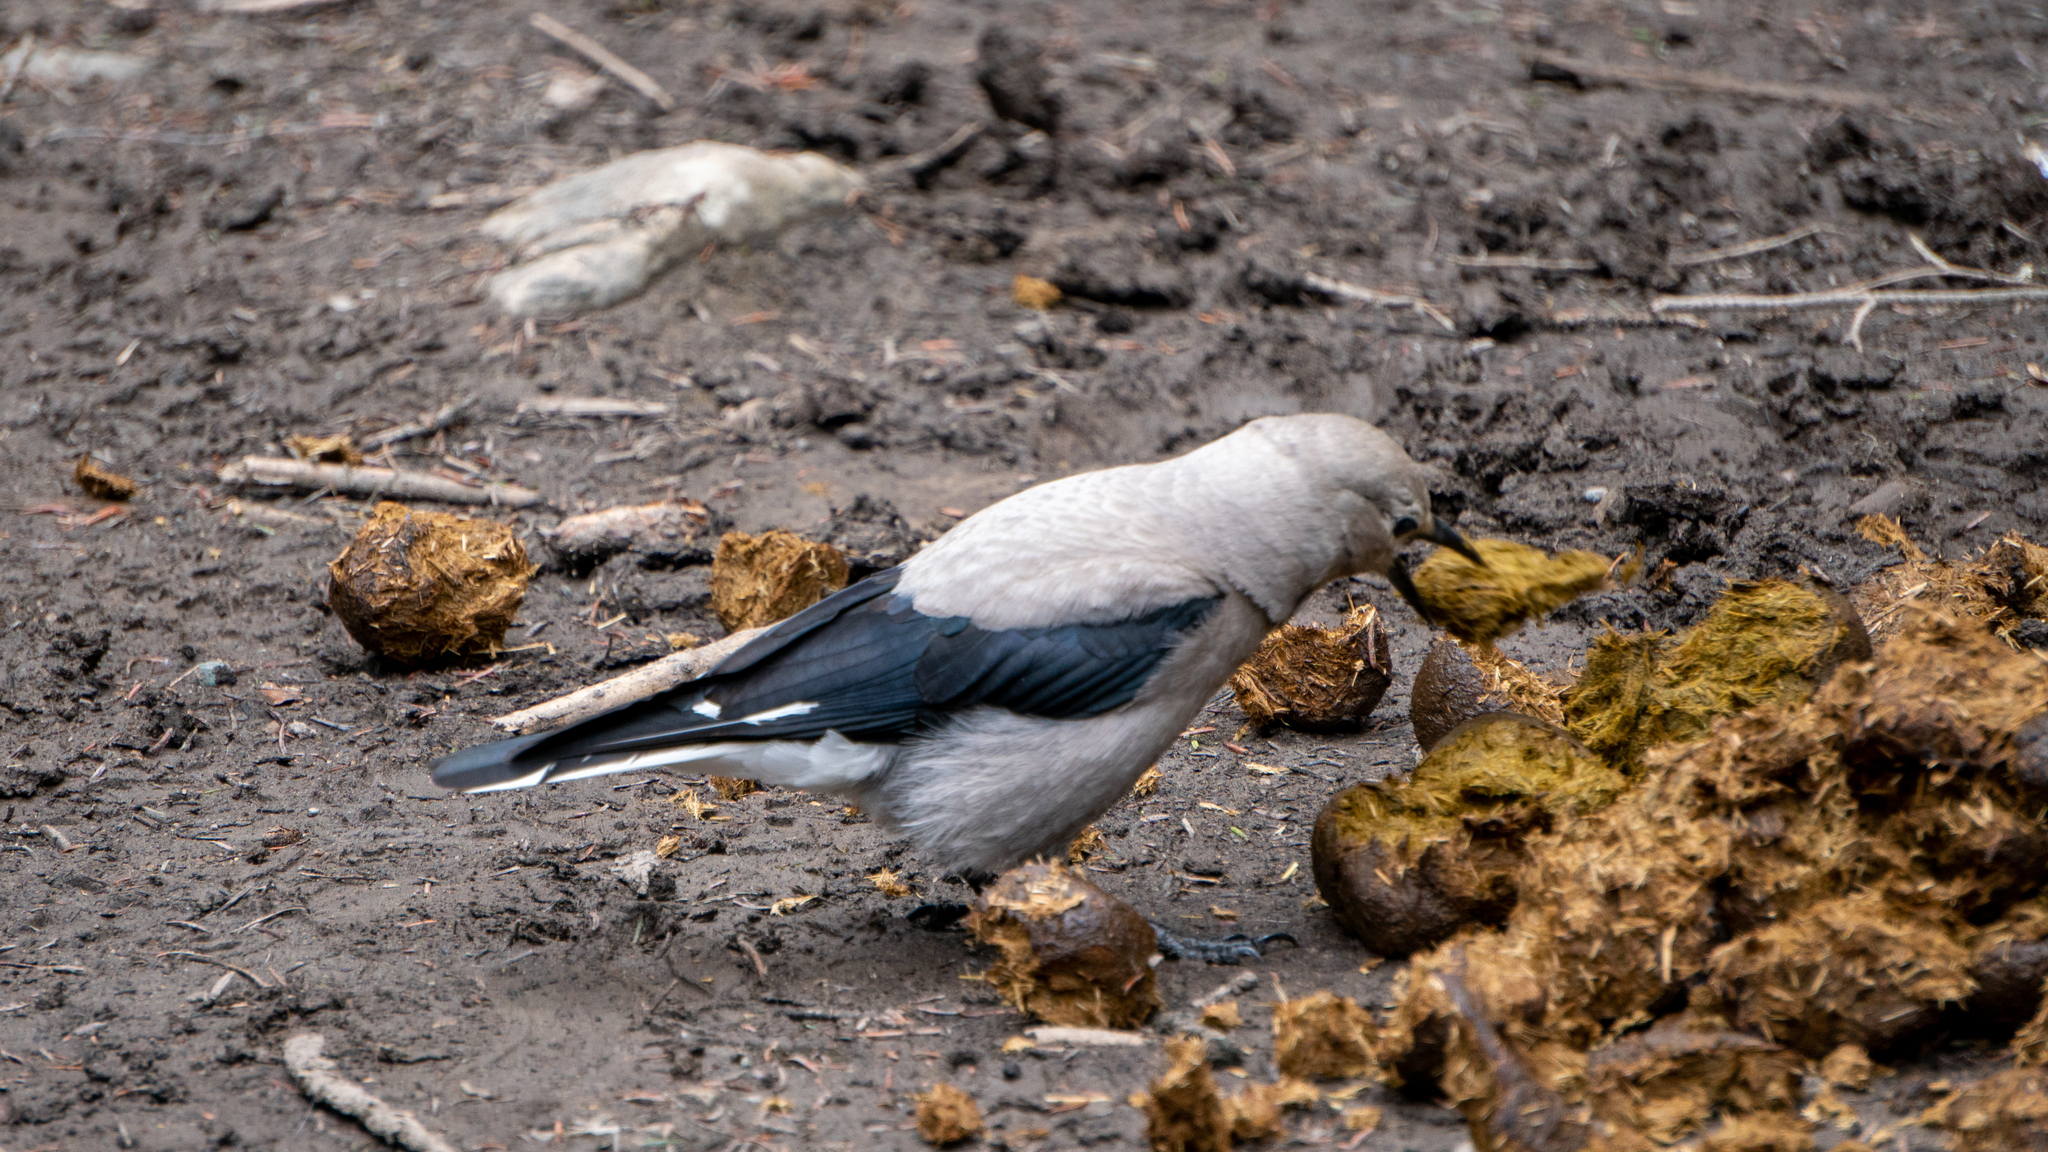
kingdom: Animalia
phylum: Chordata
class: Aves
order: Passeriformes
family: Corvidae
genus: Nucifraga
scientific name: Nucifraga columbiana
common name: Clark's nutcracker
